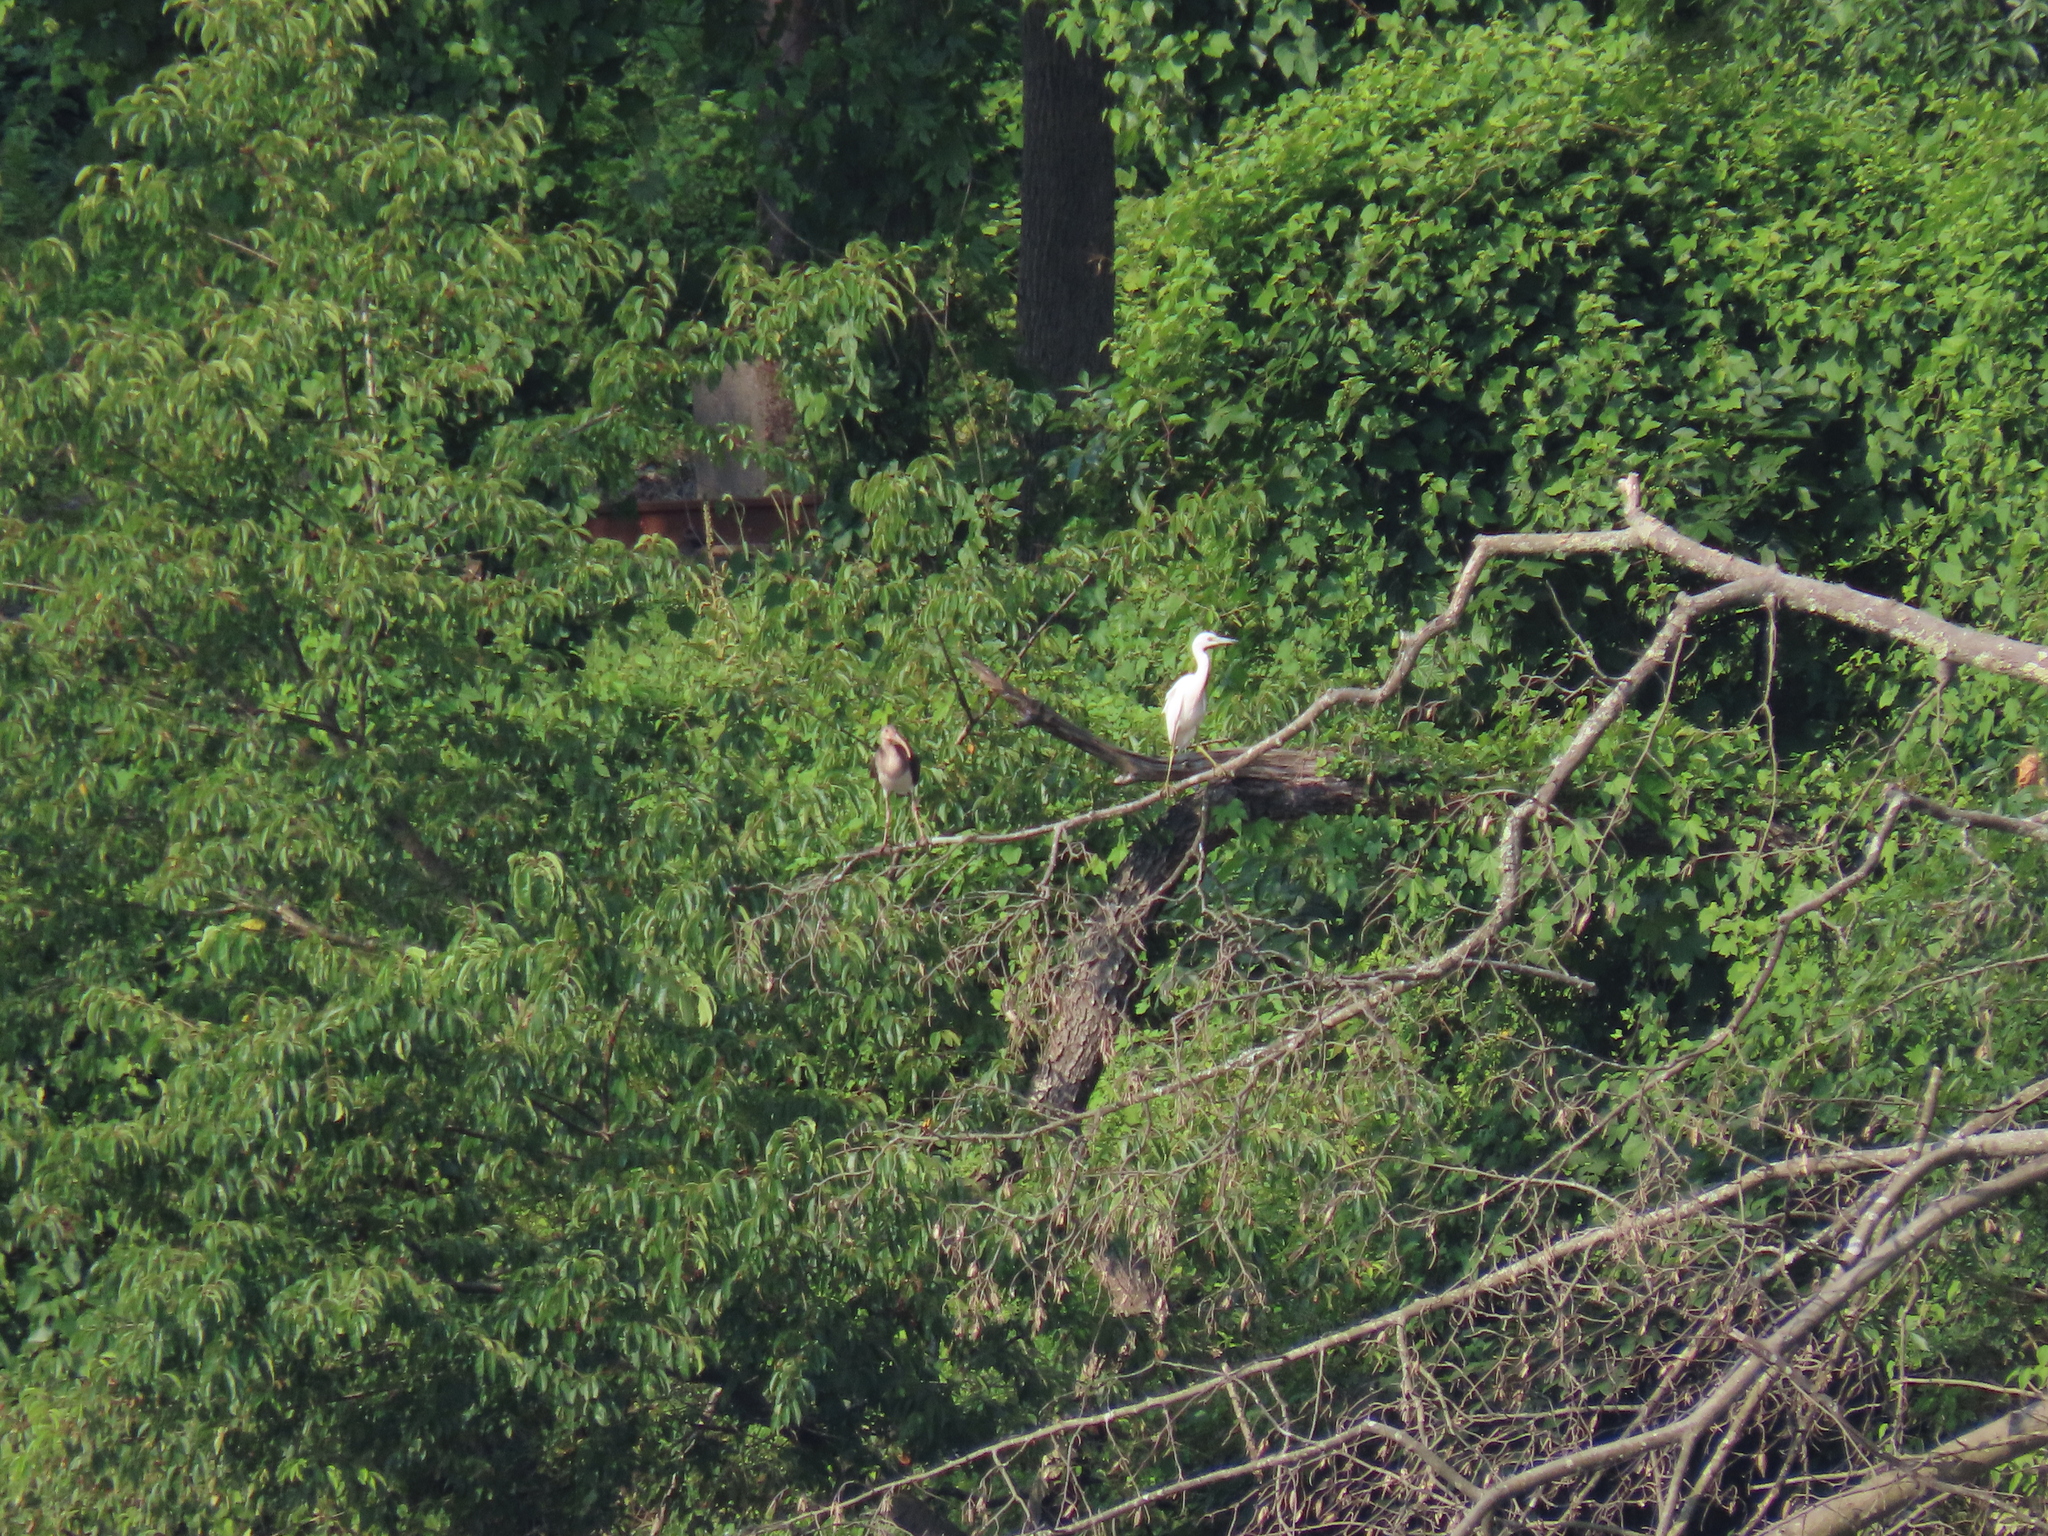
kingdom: Animalia
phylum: Chordata
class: Aves
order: Pelecaniformes
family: Threskiornithidae
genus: Eudocimus
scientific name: Eudocimus albus
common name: White ibis
